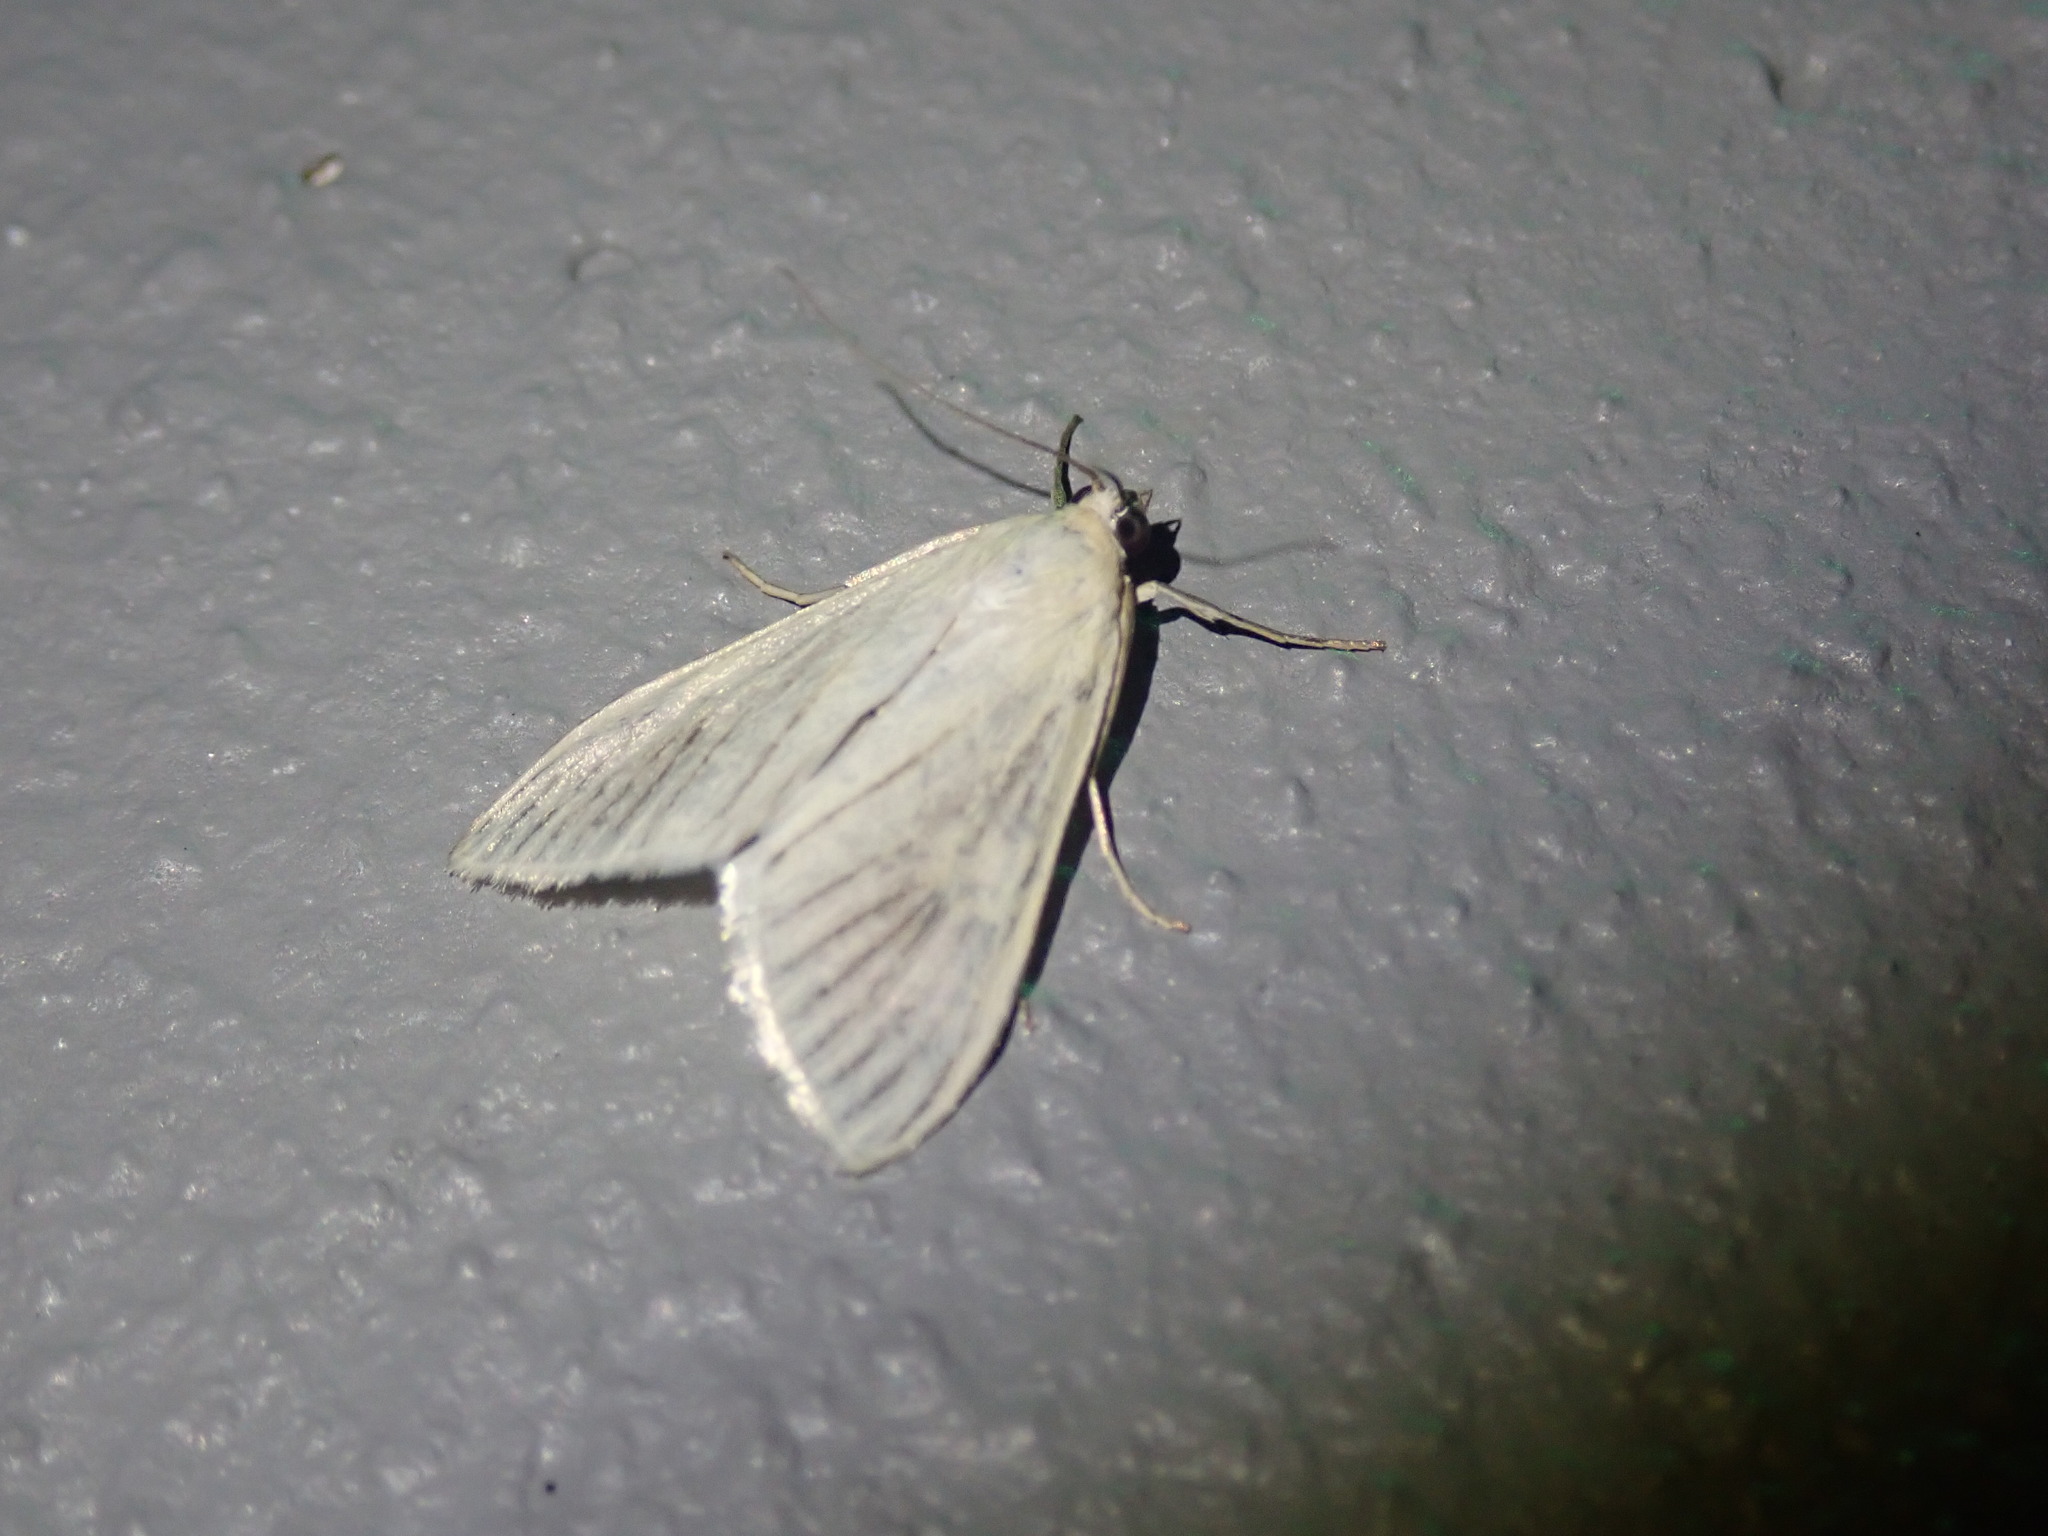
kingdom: Animalia
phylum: Arthropoda
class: Insecta
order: Lepidoptera
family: Crambidae
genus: Sitochroa
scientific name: Sitochroa palealis
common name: Greenish-yellow sitochroa moth
